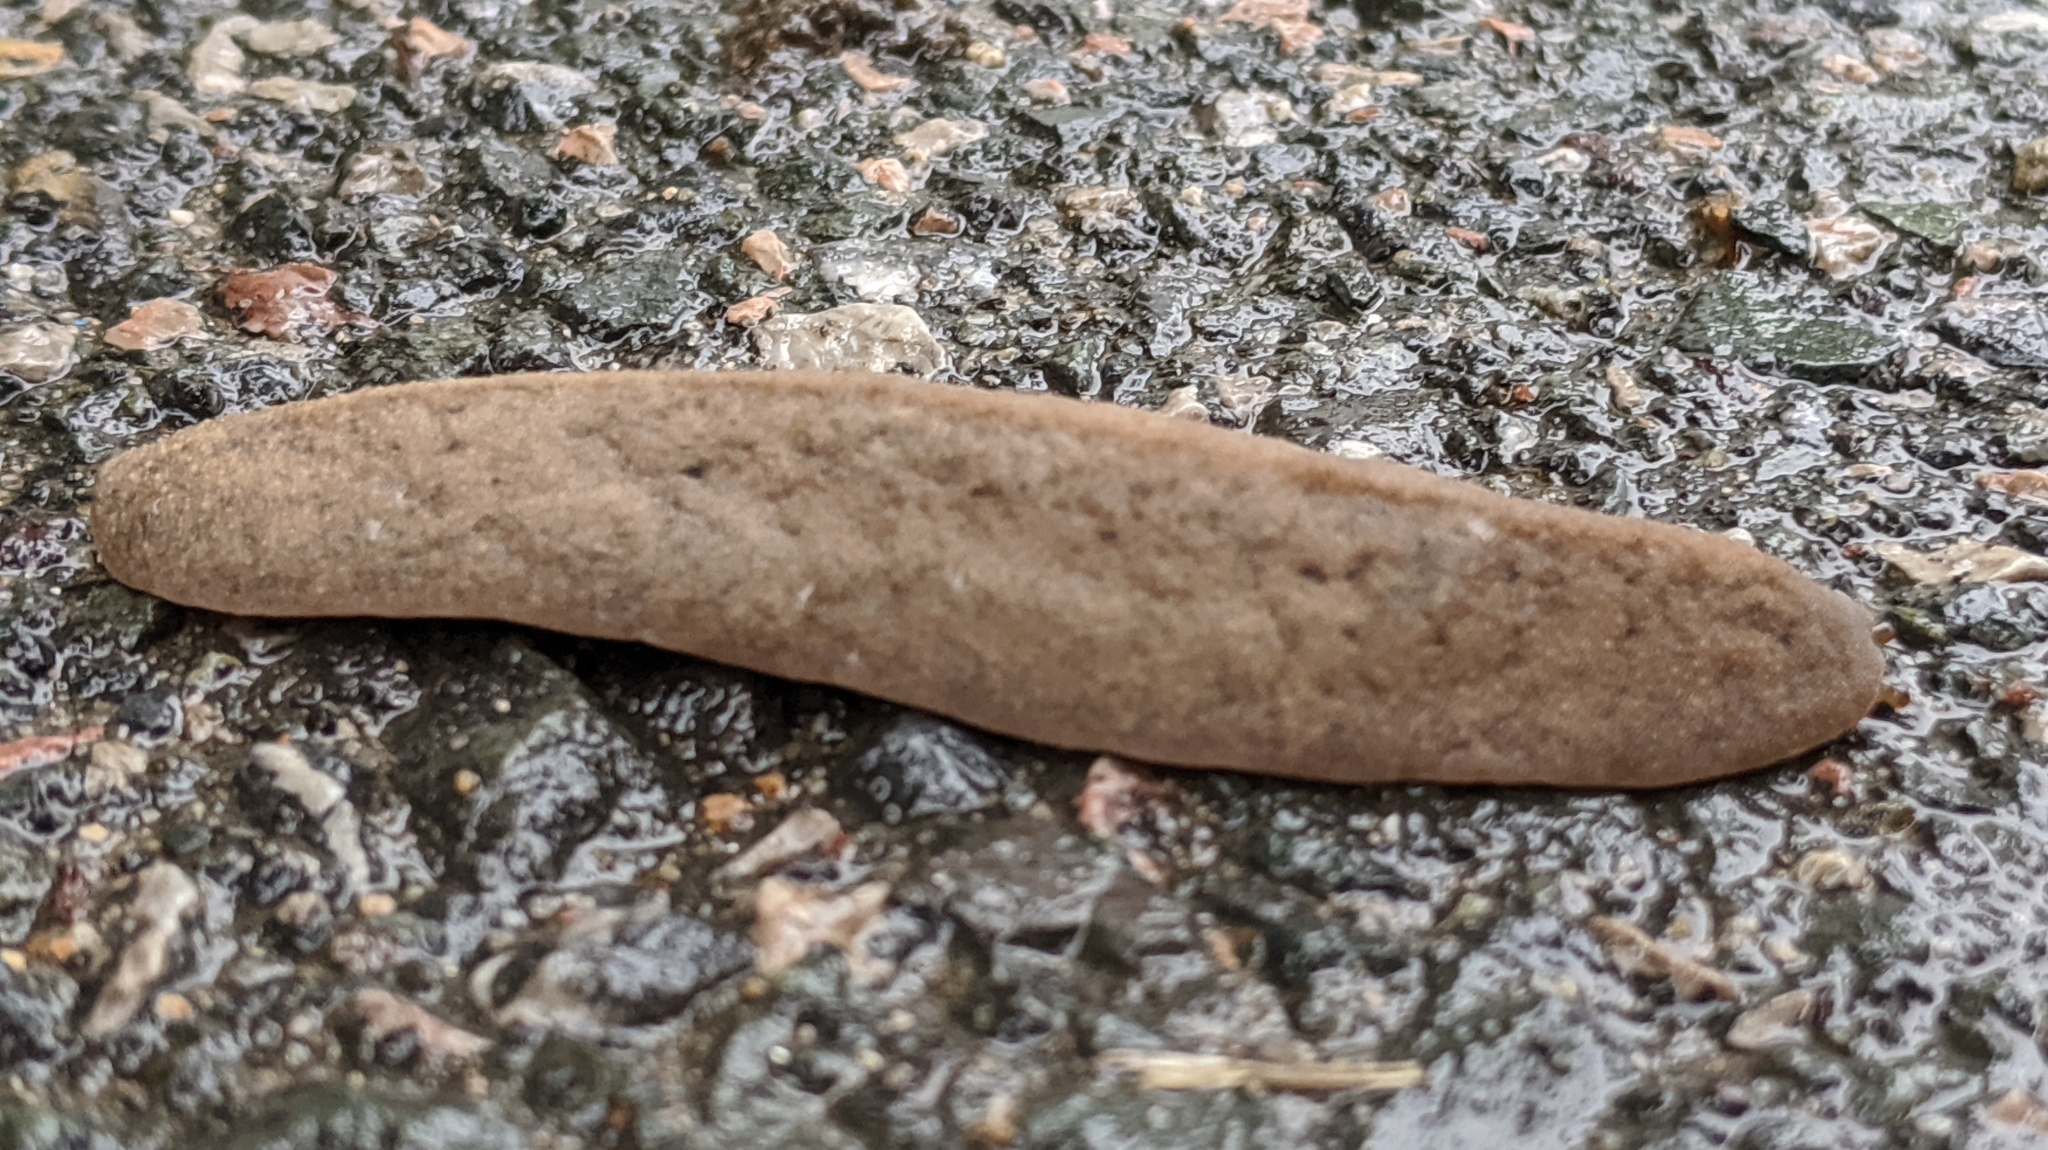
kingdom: Animalia
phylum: Mollusca
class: Gastropoda
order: Systellommatophora
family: Veronicellidae
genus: Valiguna
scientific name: Valiguna siamensis
